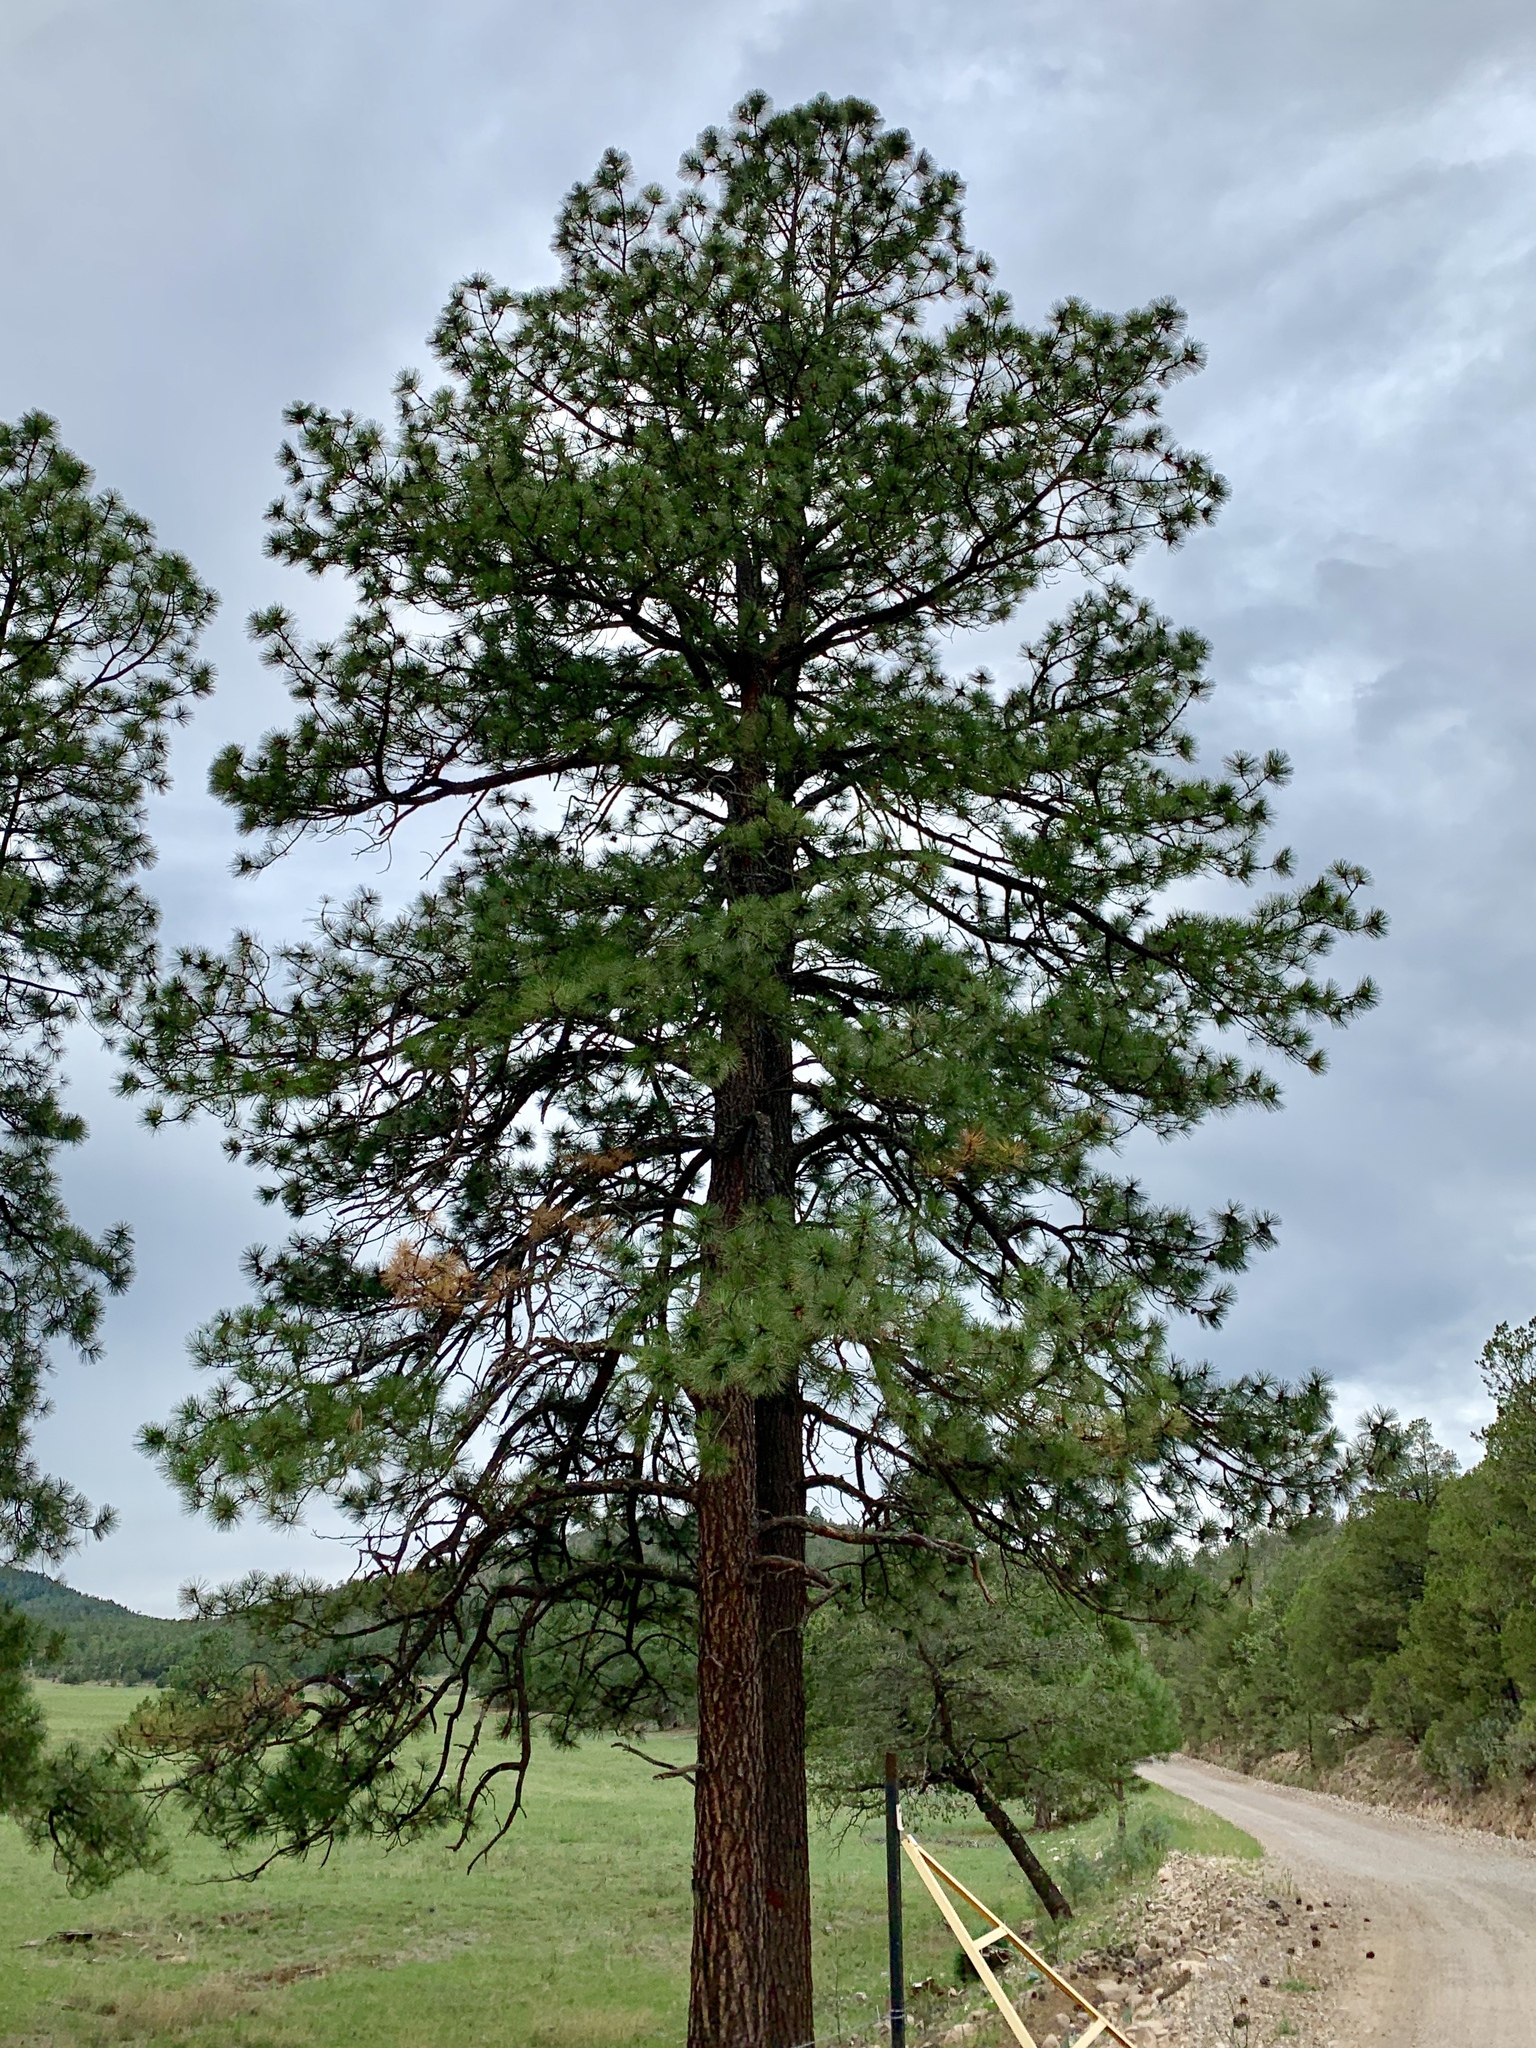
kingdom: Plantae
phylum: Tracheophyta
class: Pinopsida
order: Pinales
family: Pinaceae
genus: Pinus
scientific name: Pinus ponderosa
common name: Western yellow-pine
